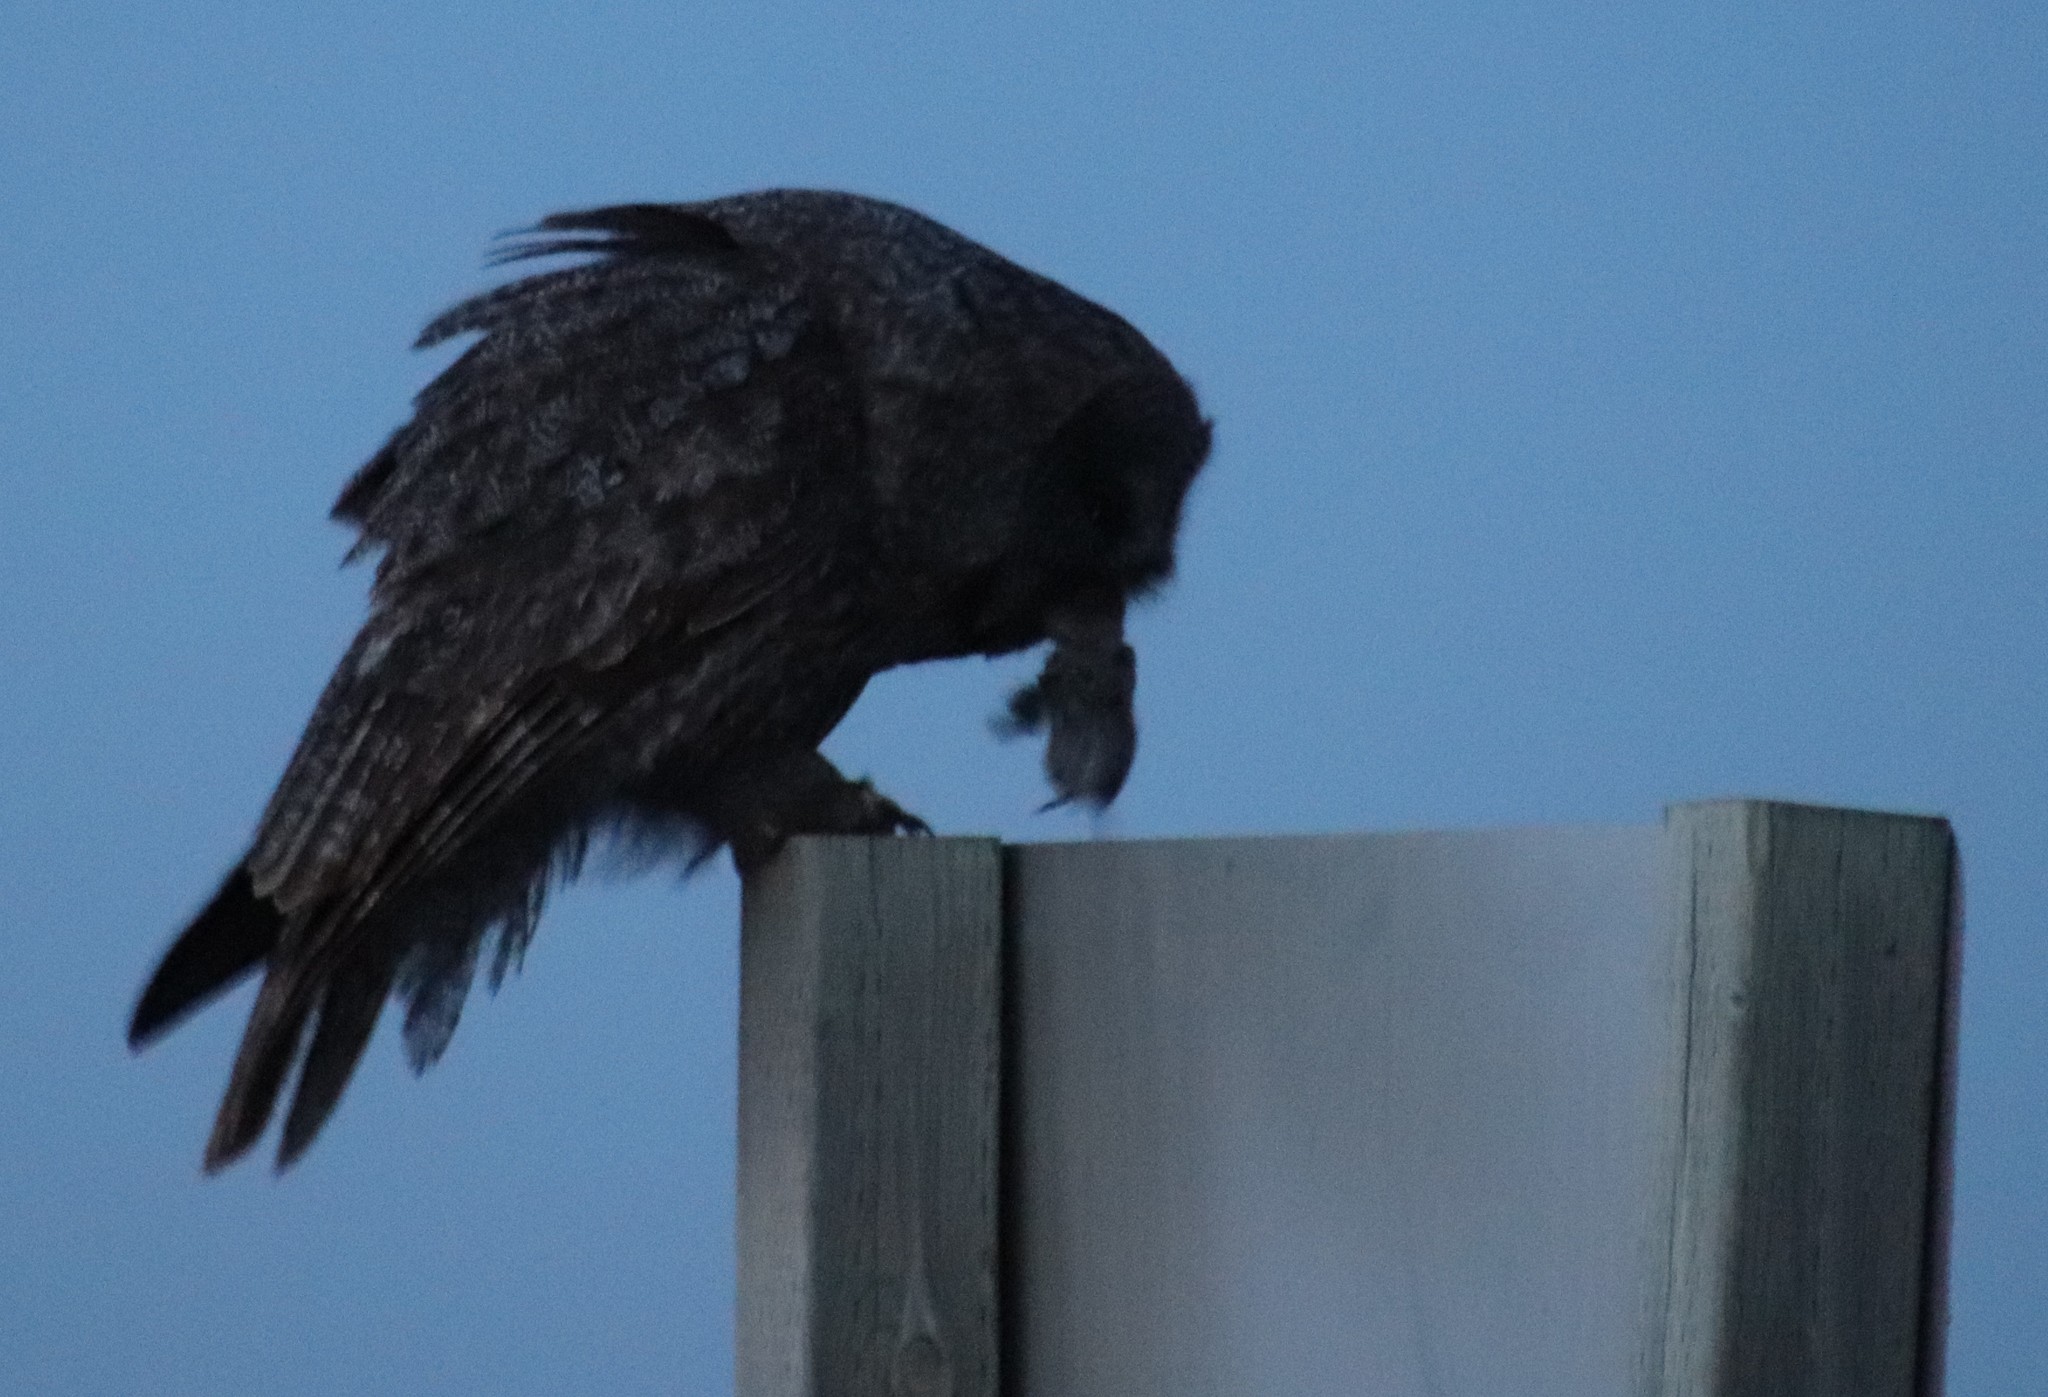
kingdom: Animalia
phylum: Chordata
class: Aves
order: Strigiformes
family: Strigidae
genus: Strix
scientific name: Strix nebulosa
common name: Great grey owl
